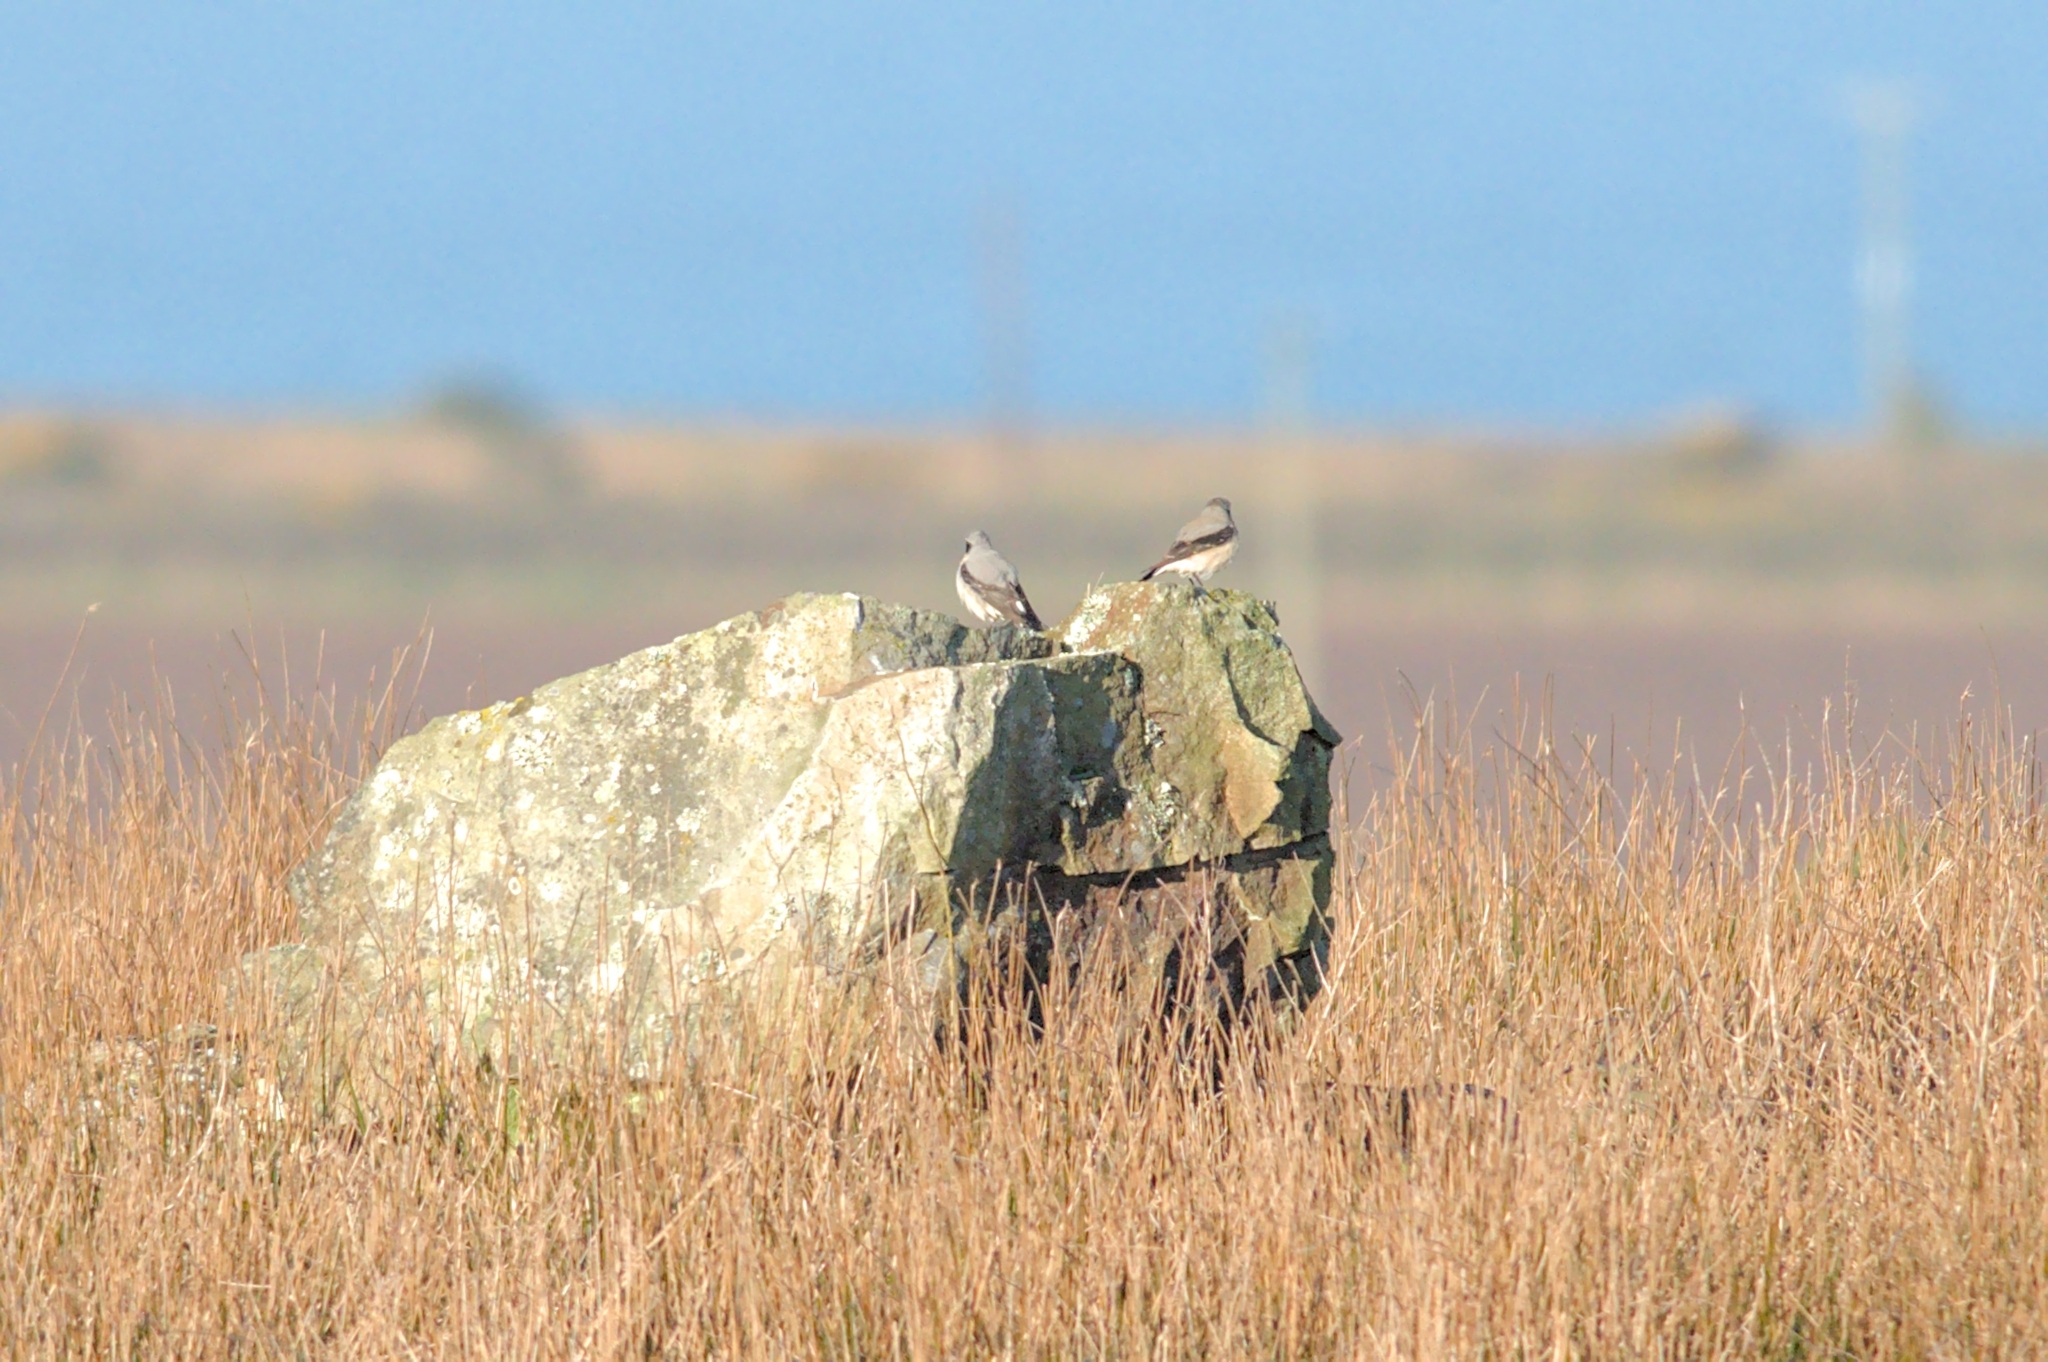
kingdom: Animalia
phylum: Chordata
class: Aves
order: Passeriformes
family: Muscicapidae
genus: Oenanthe
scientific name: Oenanthe oenanthe
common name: Northern wheatear
